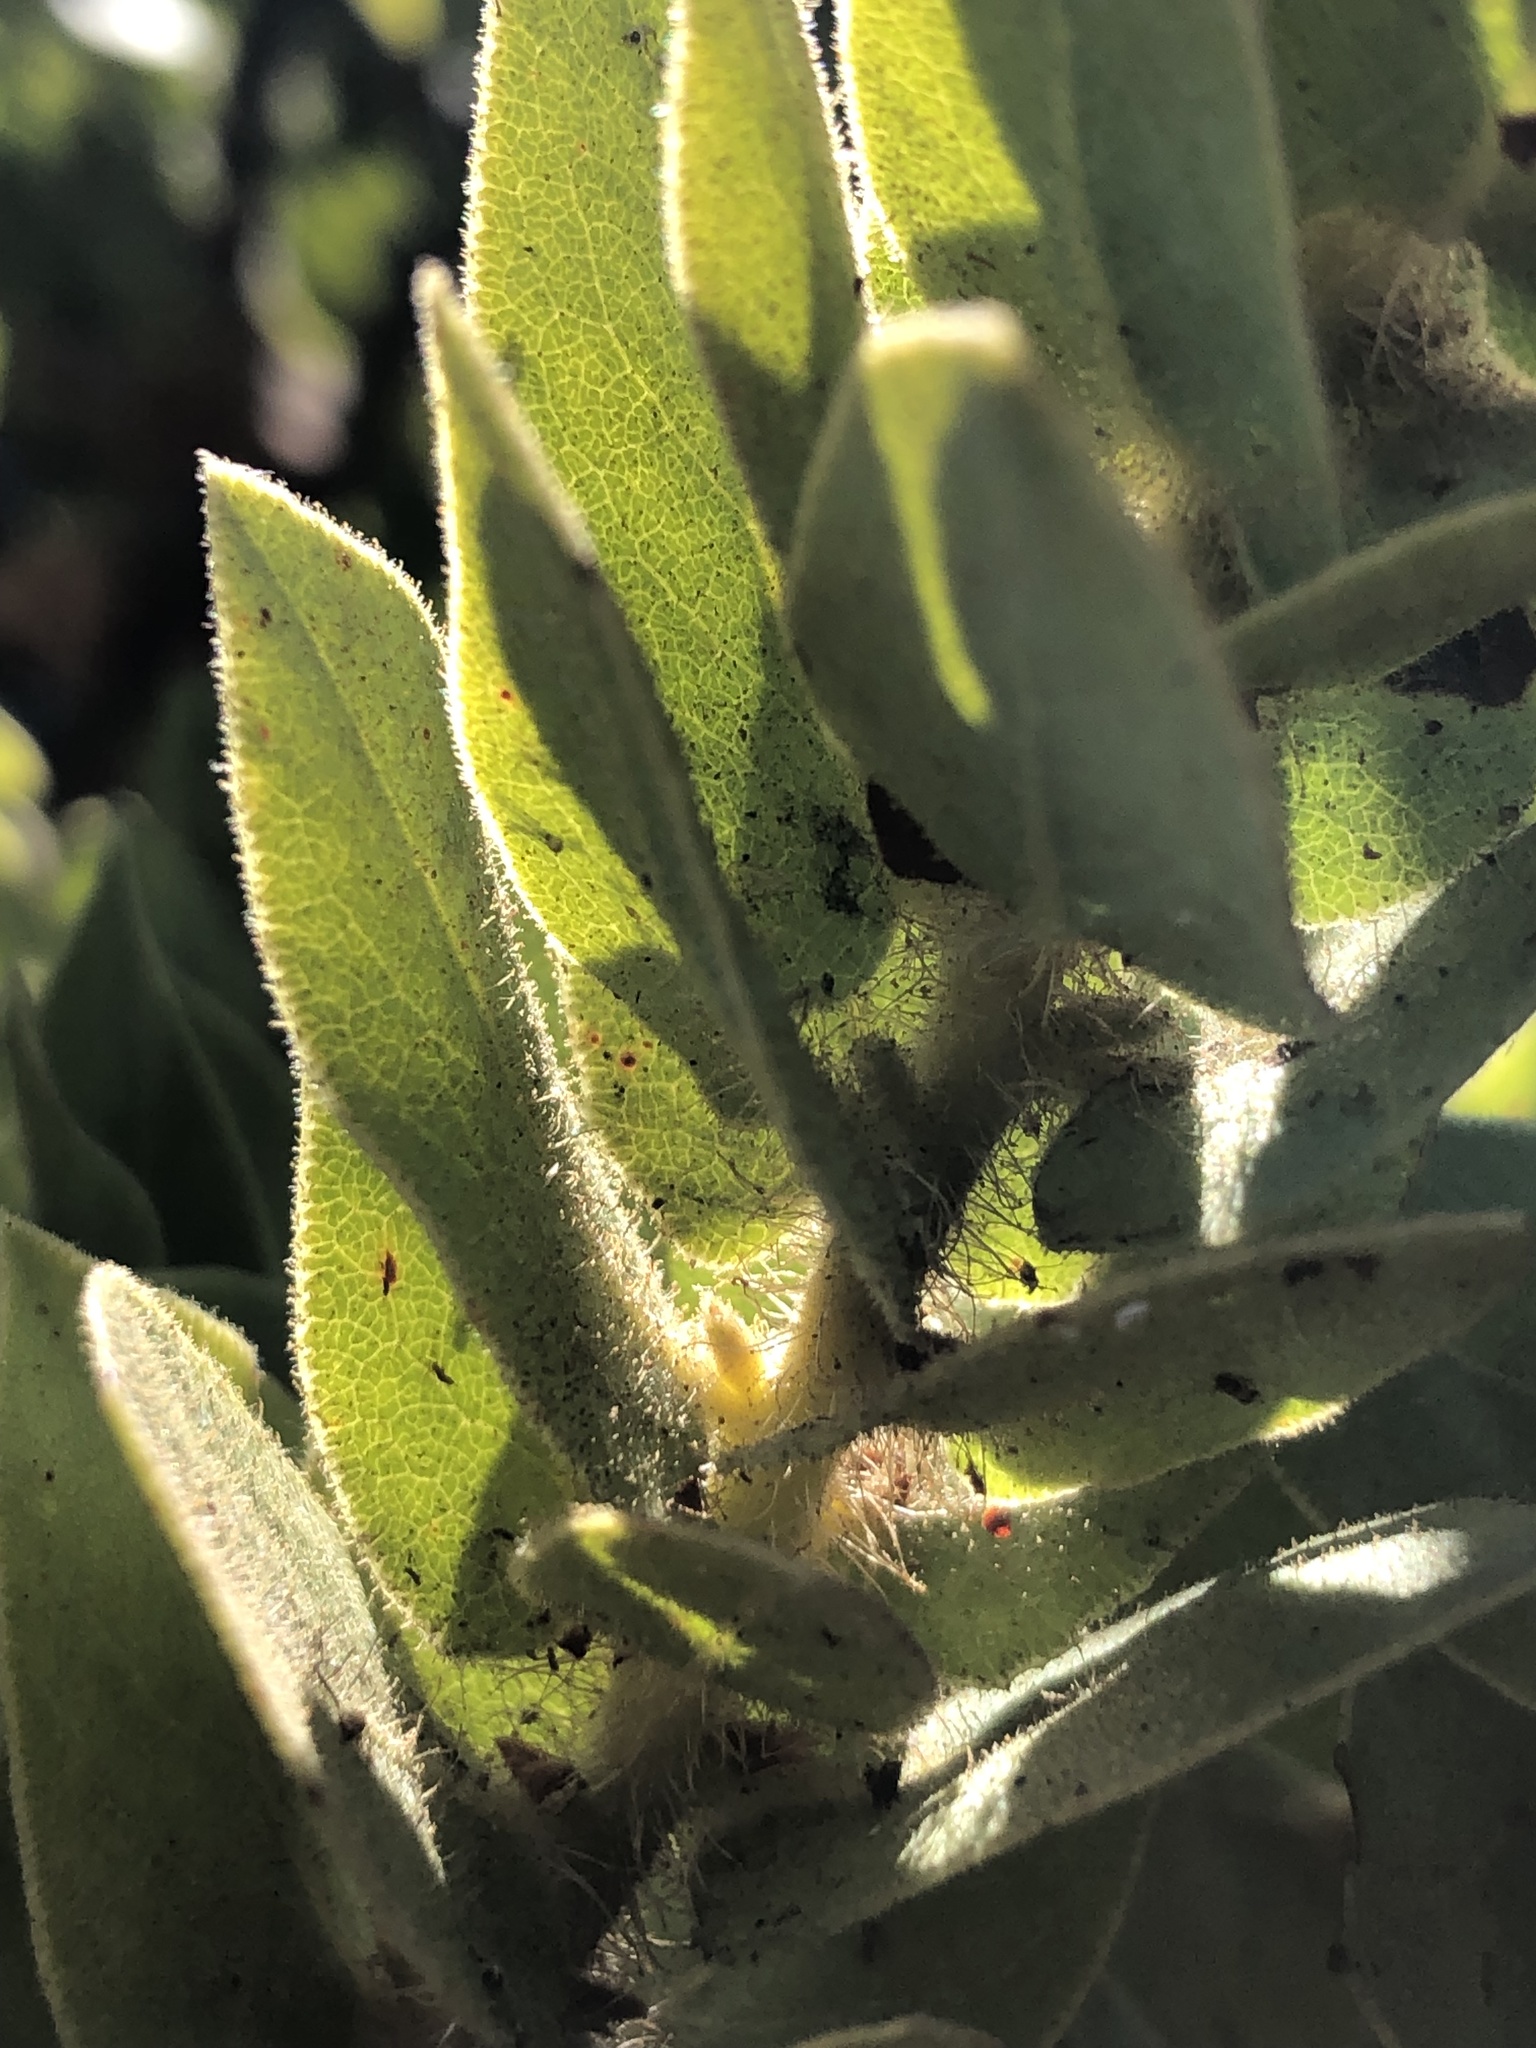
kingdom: Plantae
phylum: Tracheophyta
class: Magnoliopsida
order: Ericales
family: Ericaceae
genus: Arctostaphylos
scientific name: Arctostaphylos refugioensis
